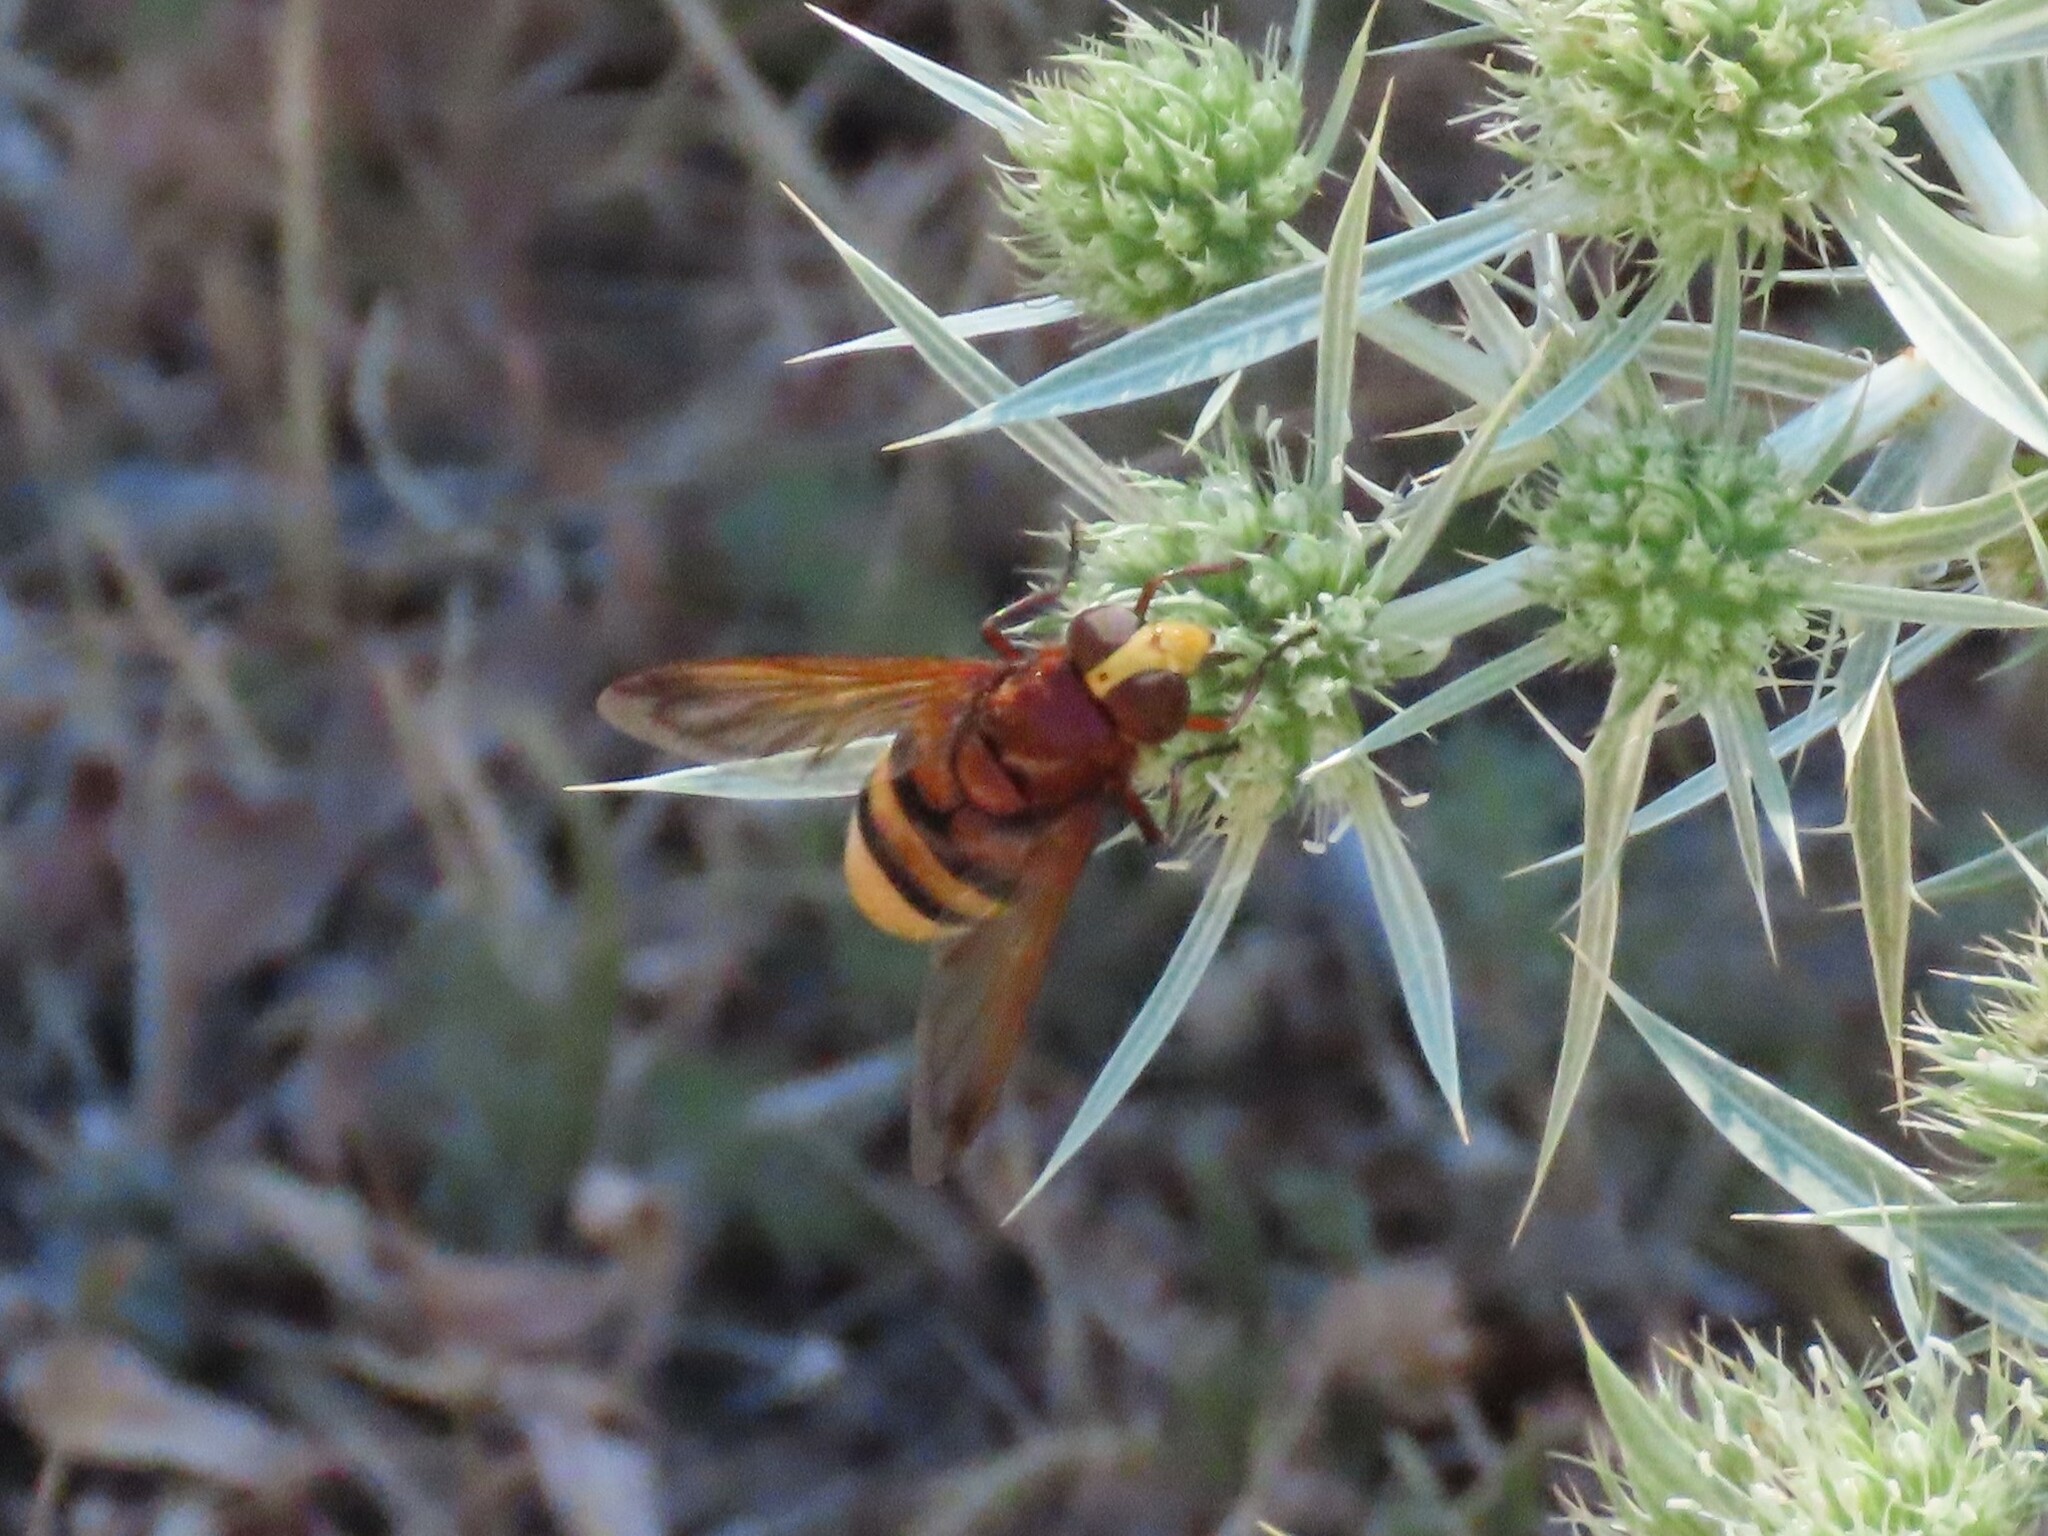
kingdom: Animalia
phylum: Arthropoda
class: Insecta
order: Diptera
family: Syrphidae
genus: Volucella
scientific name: Volucella zonaria
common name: Hornet hoverfly
